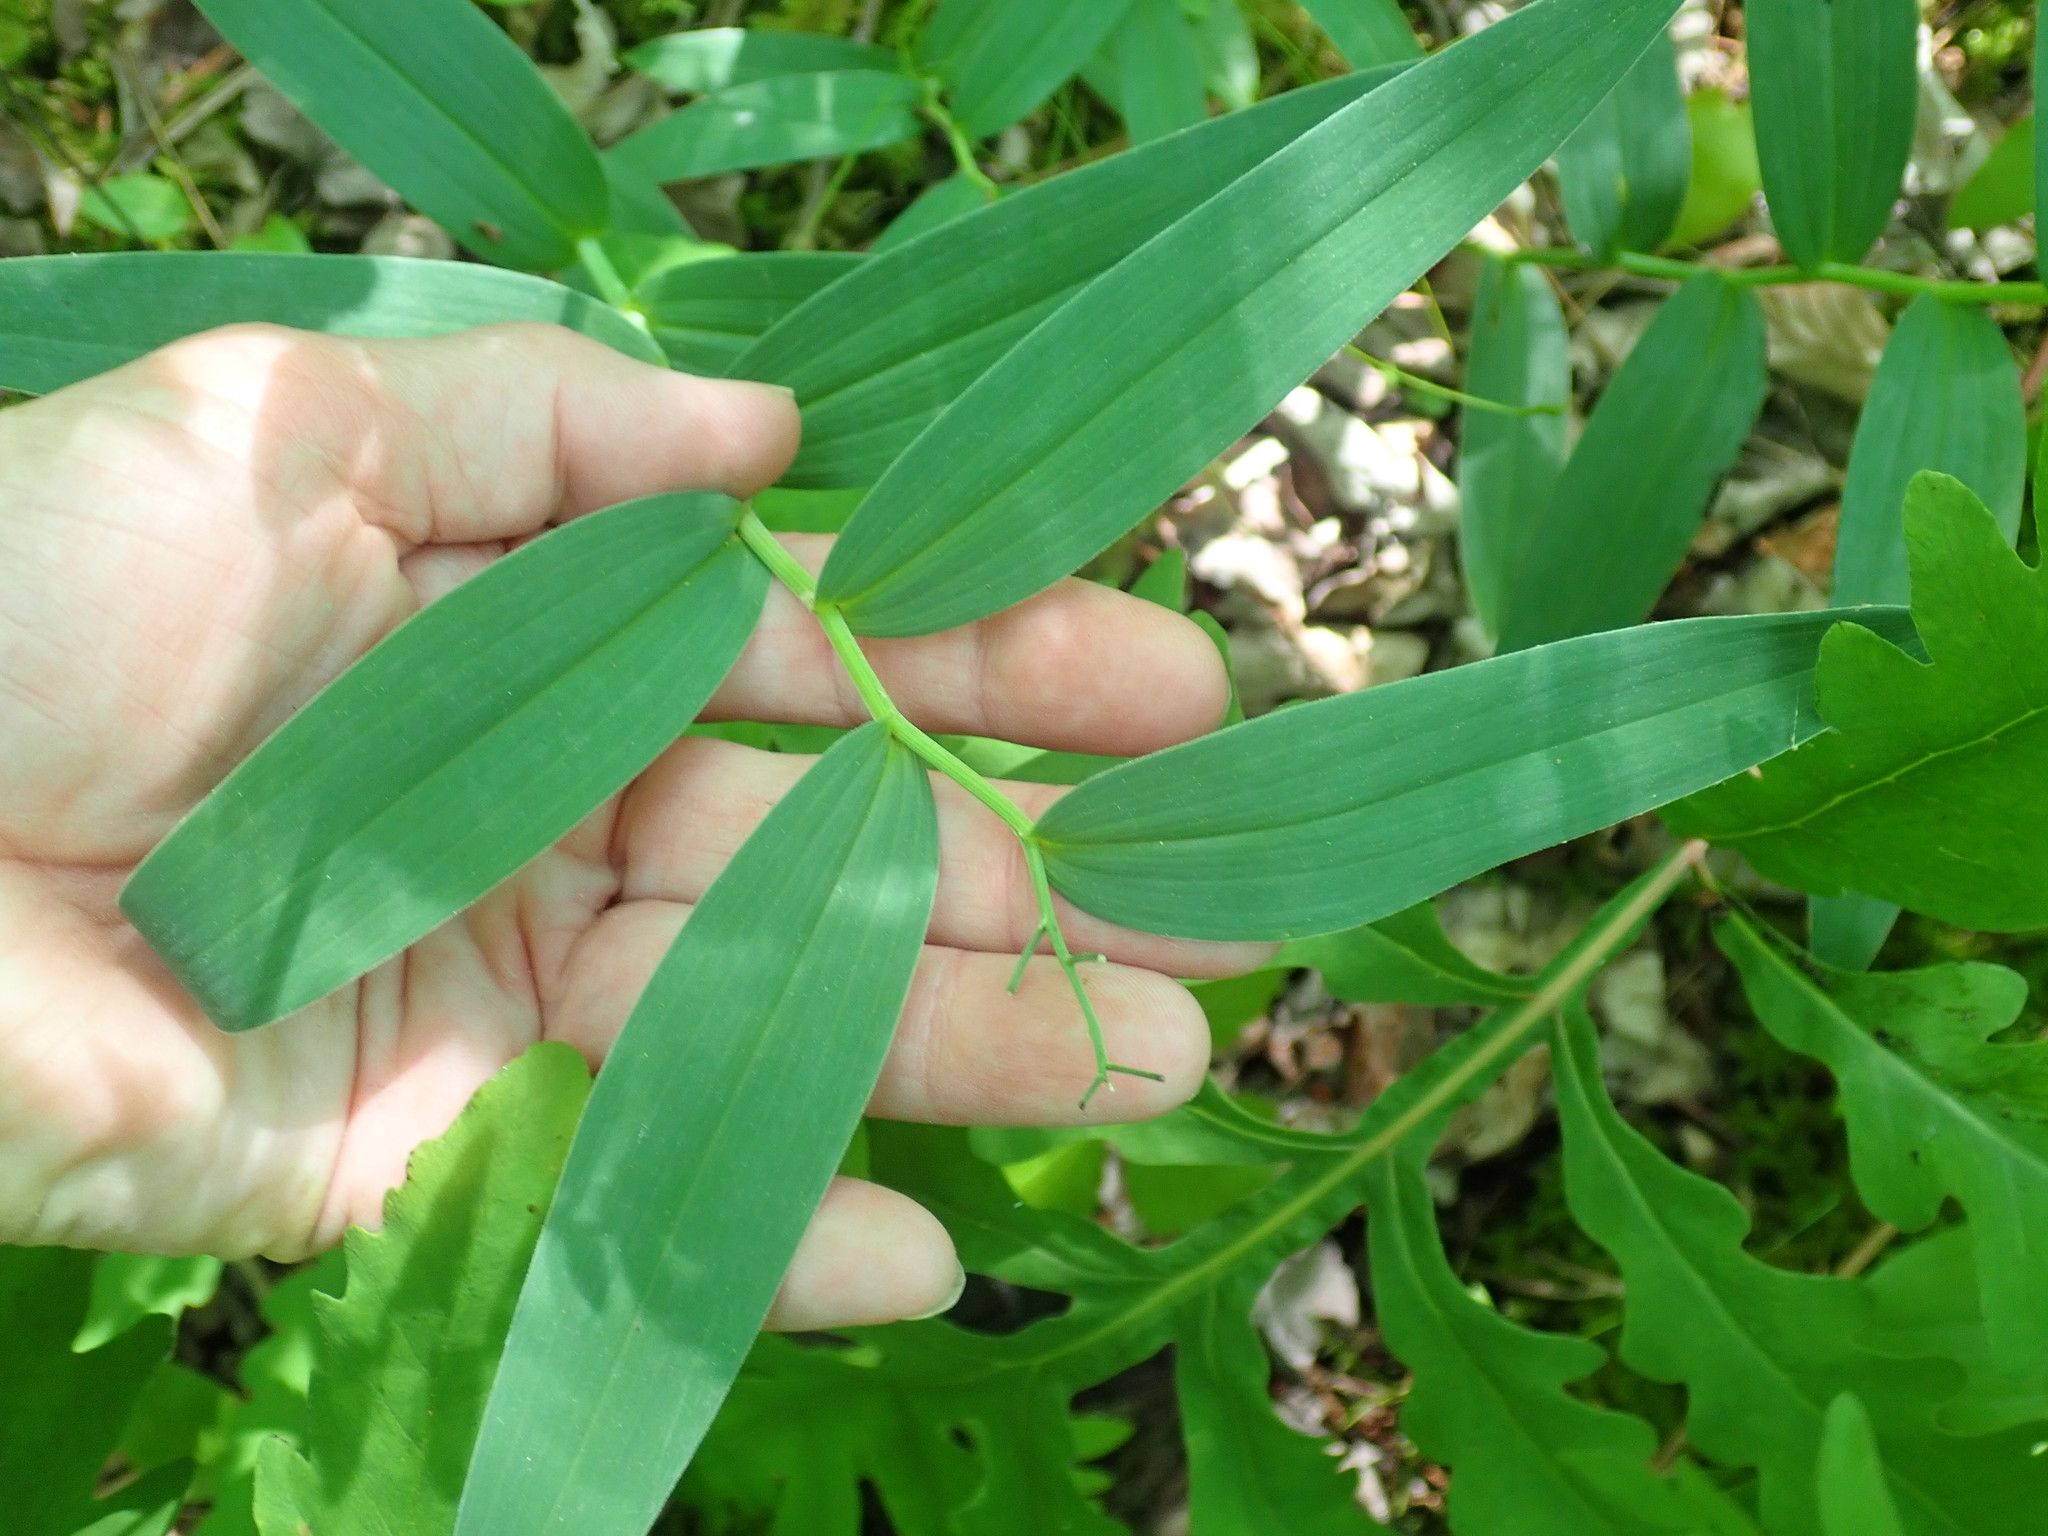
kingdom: Plantae
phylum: Tracheophyta
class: Liliopsida
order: Asparagales
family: Asparagaceae
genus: Maianthemum
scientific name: Maianthemum stellatum
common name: Little false solomon's seal
